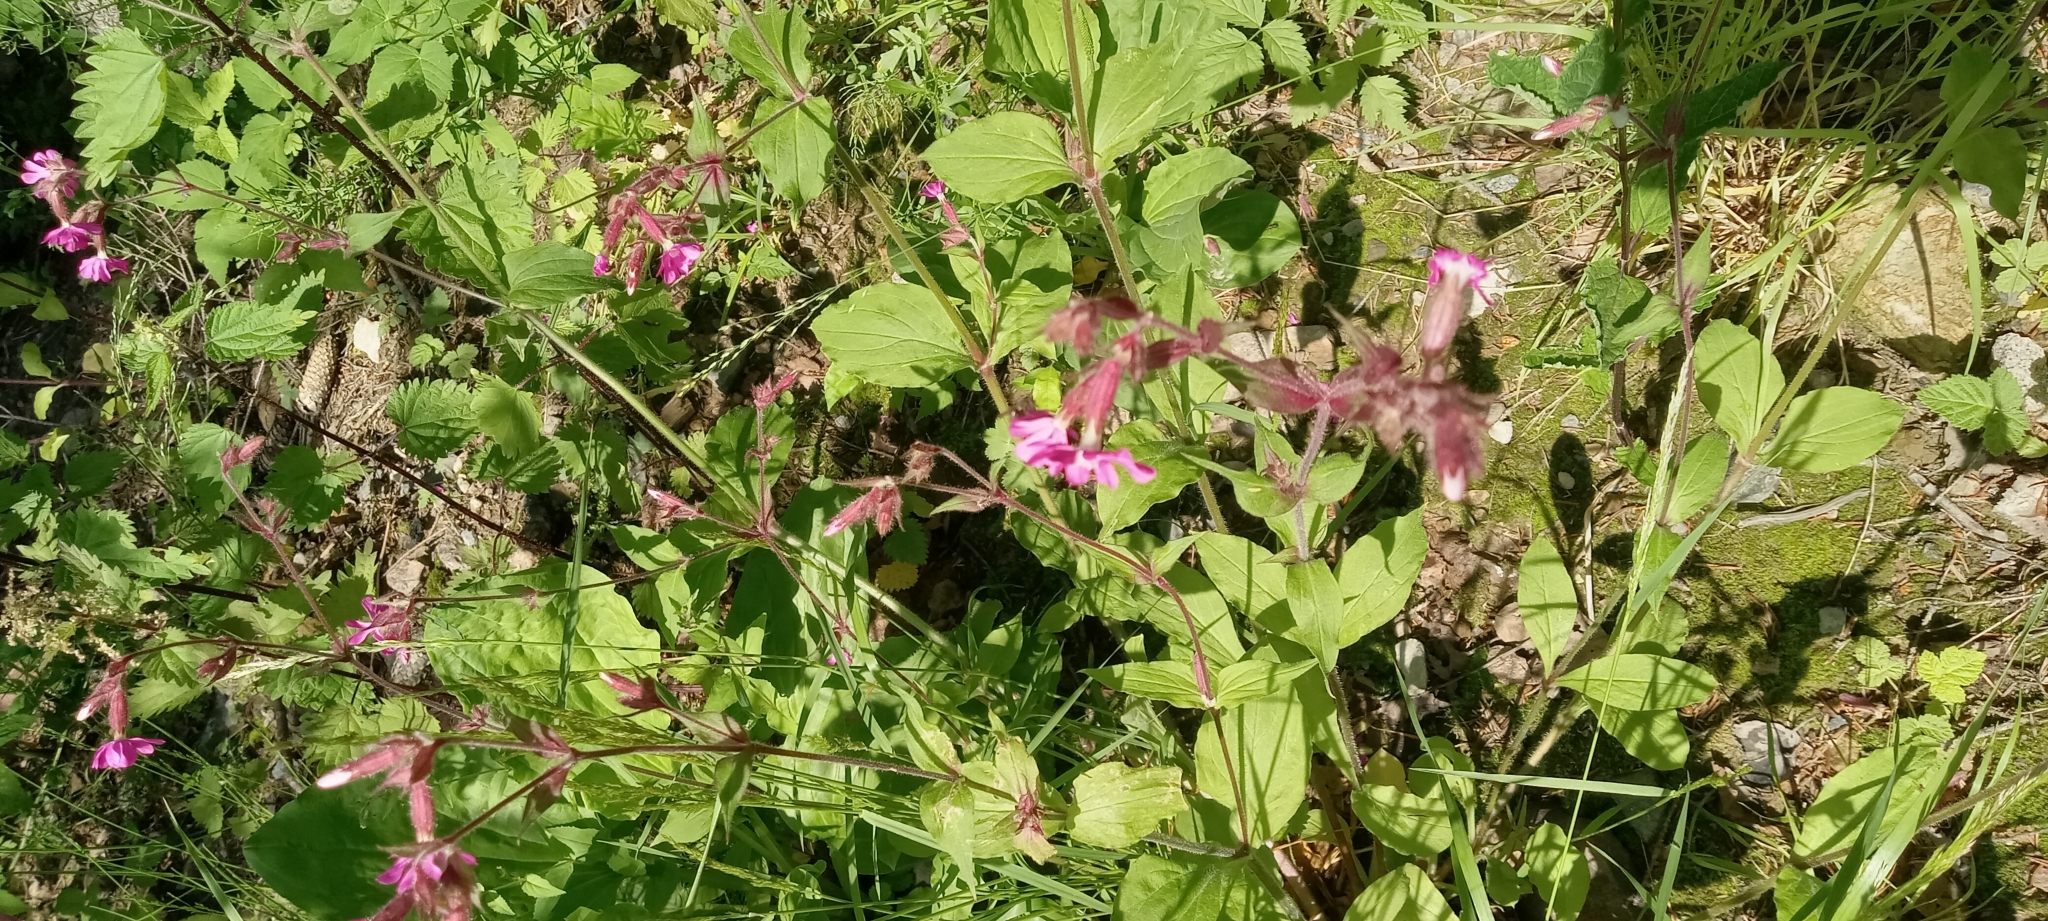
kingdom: Plantae
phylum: Tracheophyta
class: Magnoliopsida
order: Caryophyllales
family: Caryophyllaceae
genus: Silene
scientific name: Silene dioica
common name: Red campion
